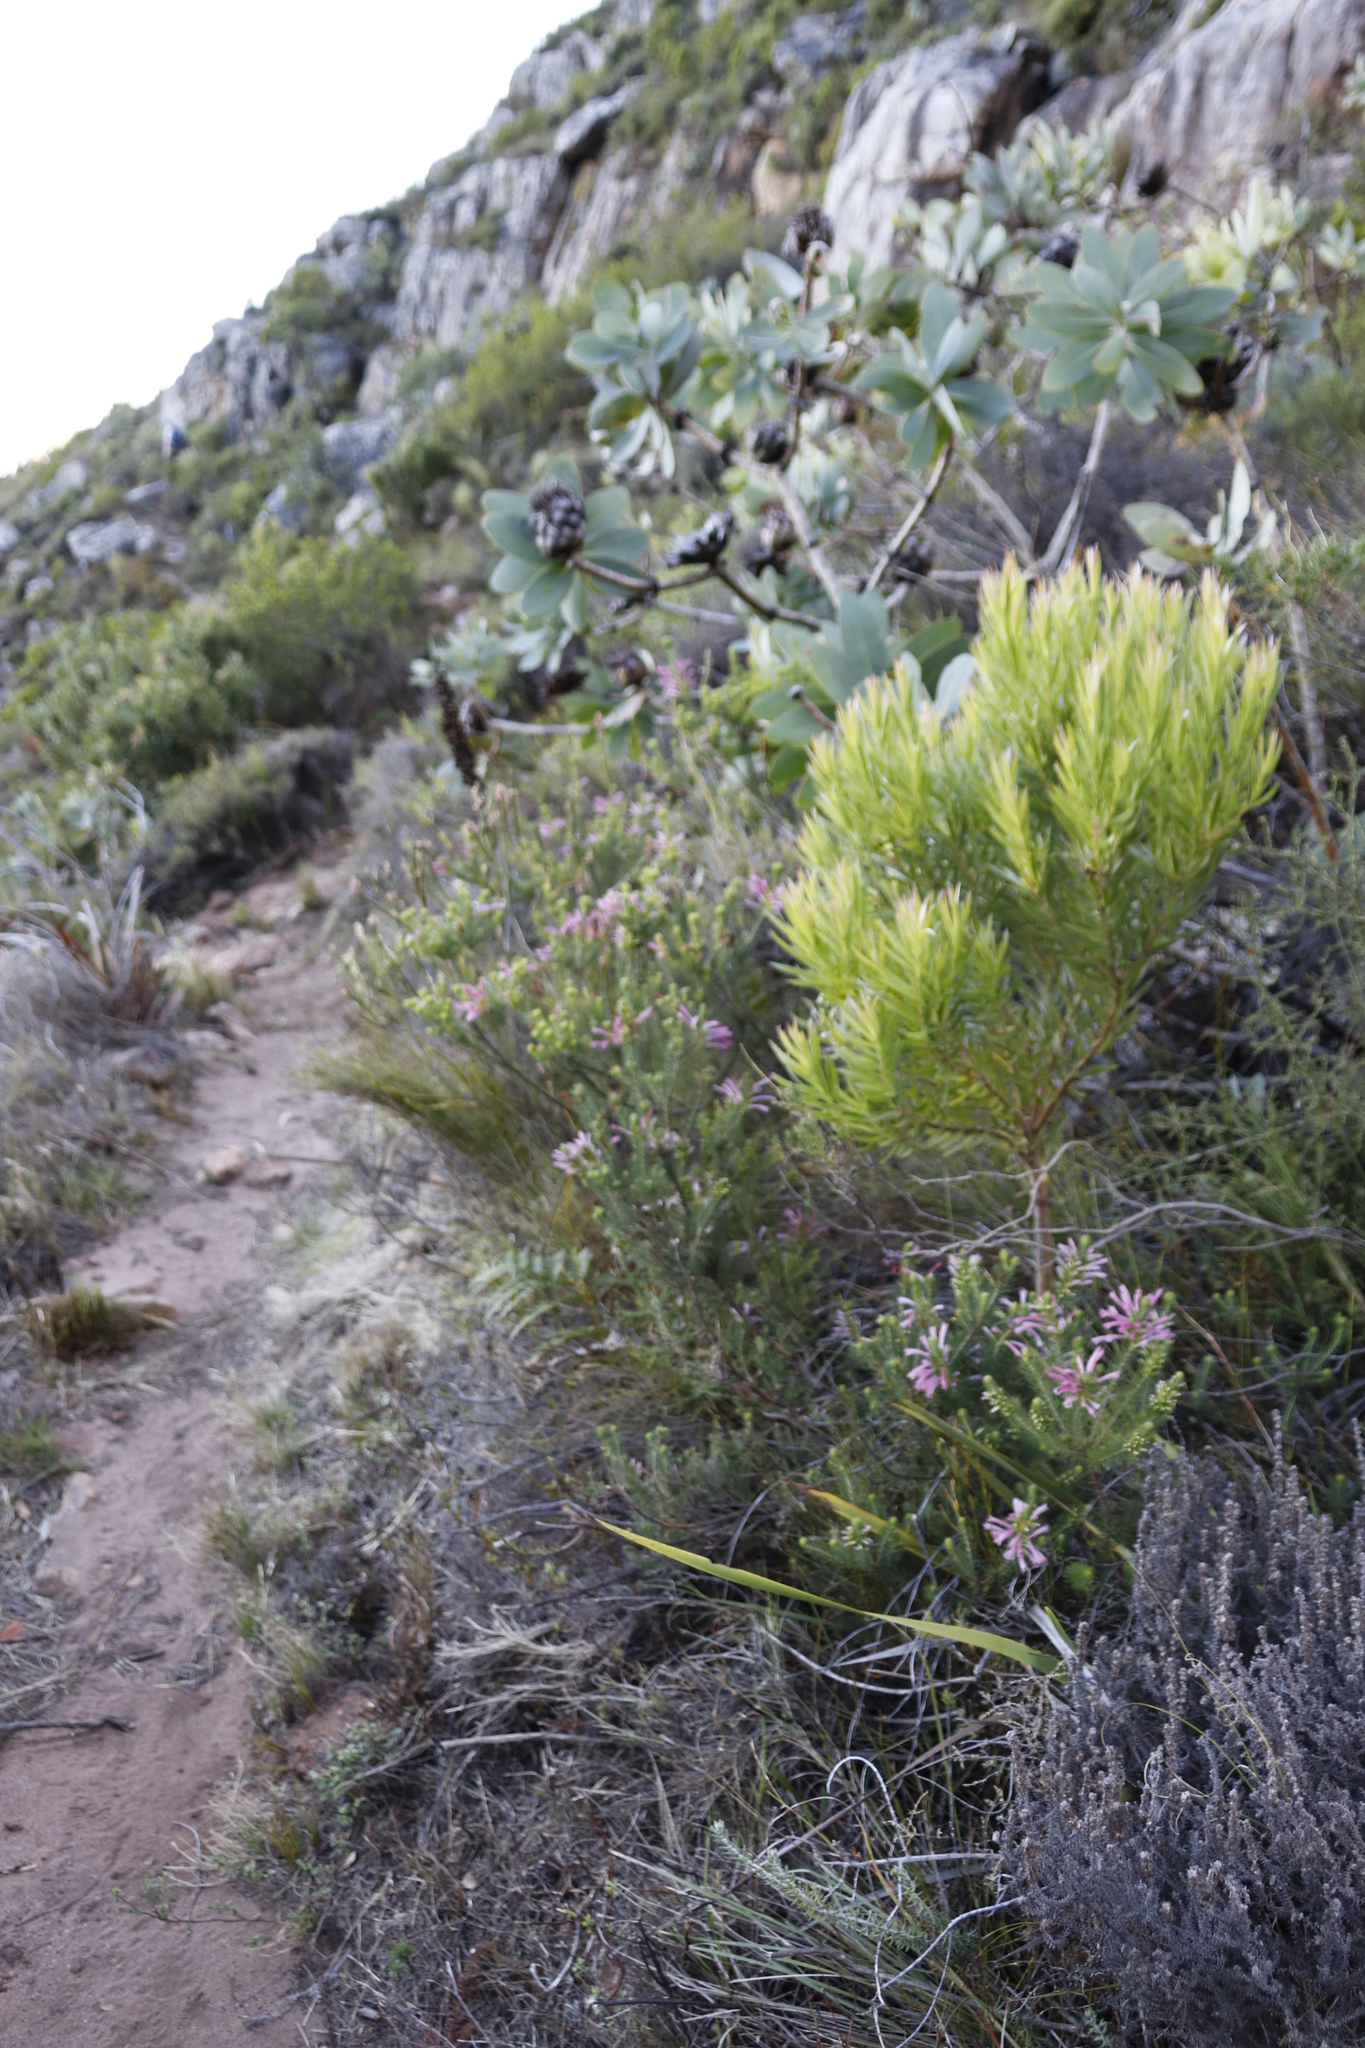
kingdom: Plantae
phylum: Tracheophyta
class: Magnoliopsida
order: Proteales
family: Proteaceae
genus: Leucadendron
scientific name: Leucadendron xanthoconus
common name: Sickle-leaf conebush
